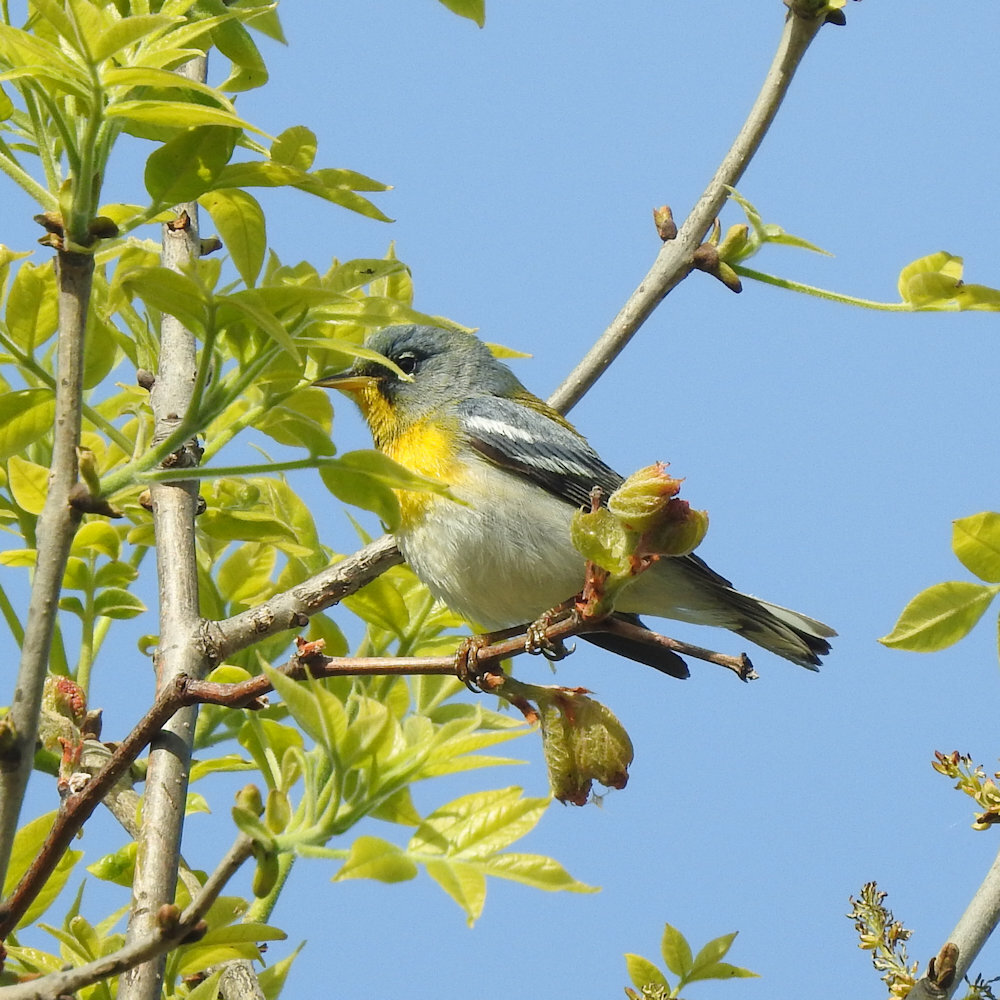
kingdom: Animalia
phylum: Chordata
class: Aves
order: Passeriformes
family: Parulidae
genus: Setophaga
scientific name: Setophaga americana
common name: Northern parula
